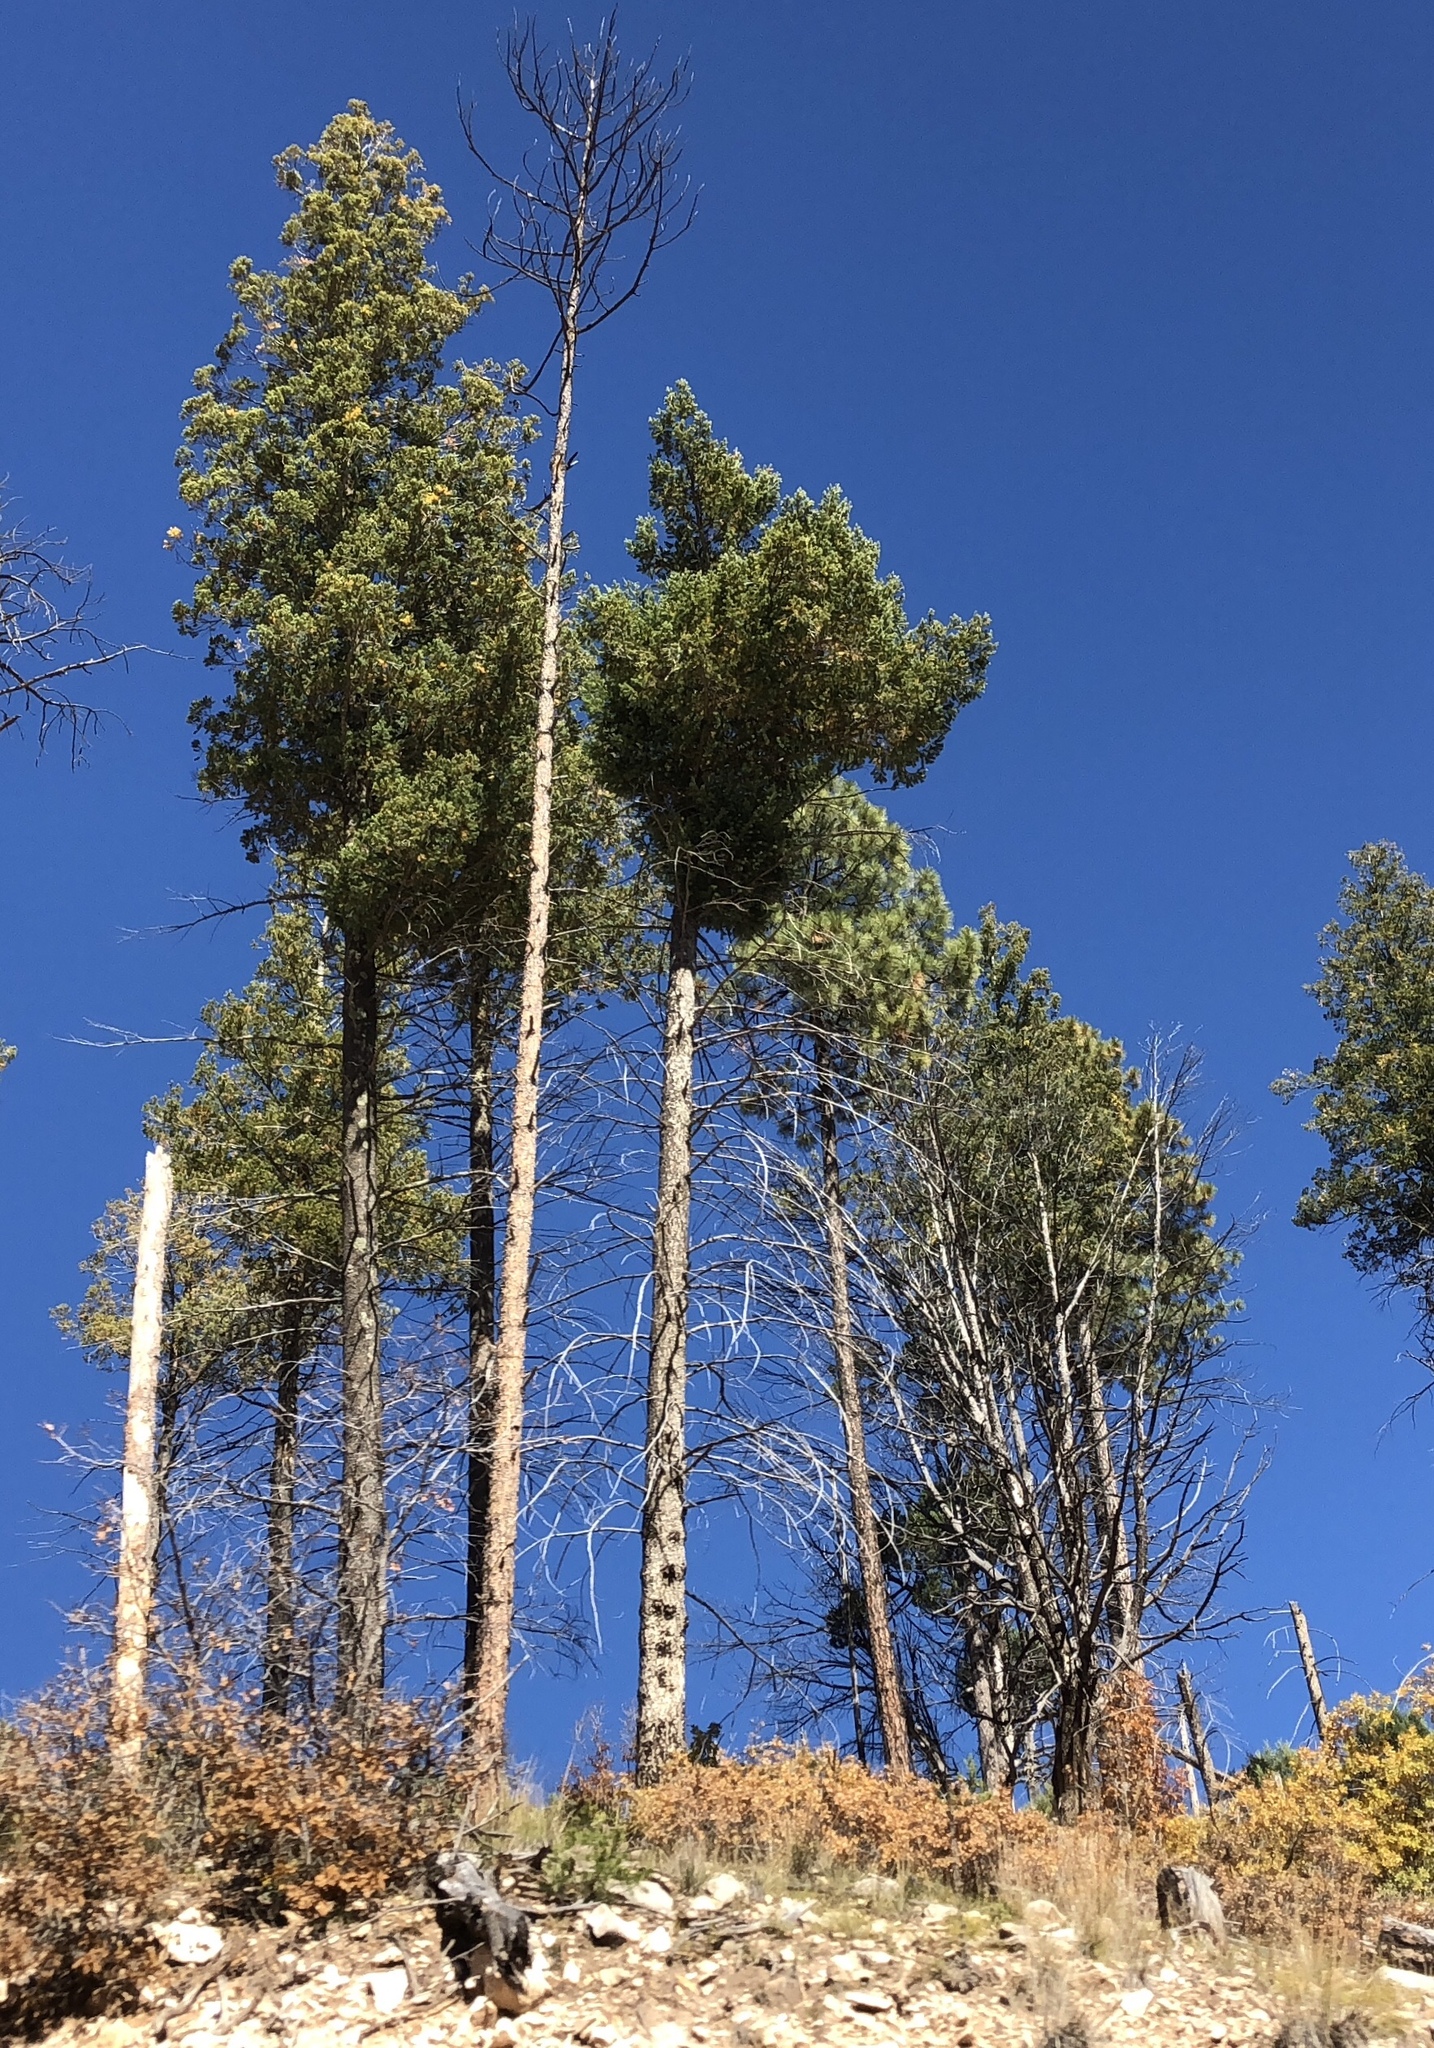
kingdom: Plantae
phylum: Tracheophyta
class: Pinopsida
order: Pinales
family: Pinaceae
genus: Pinus
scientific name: Pinus ponderosa
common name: Western yellow-pine
